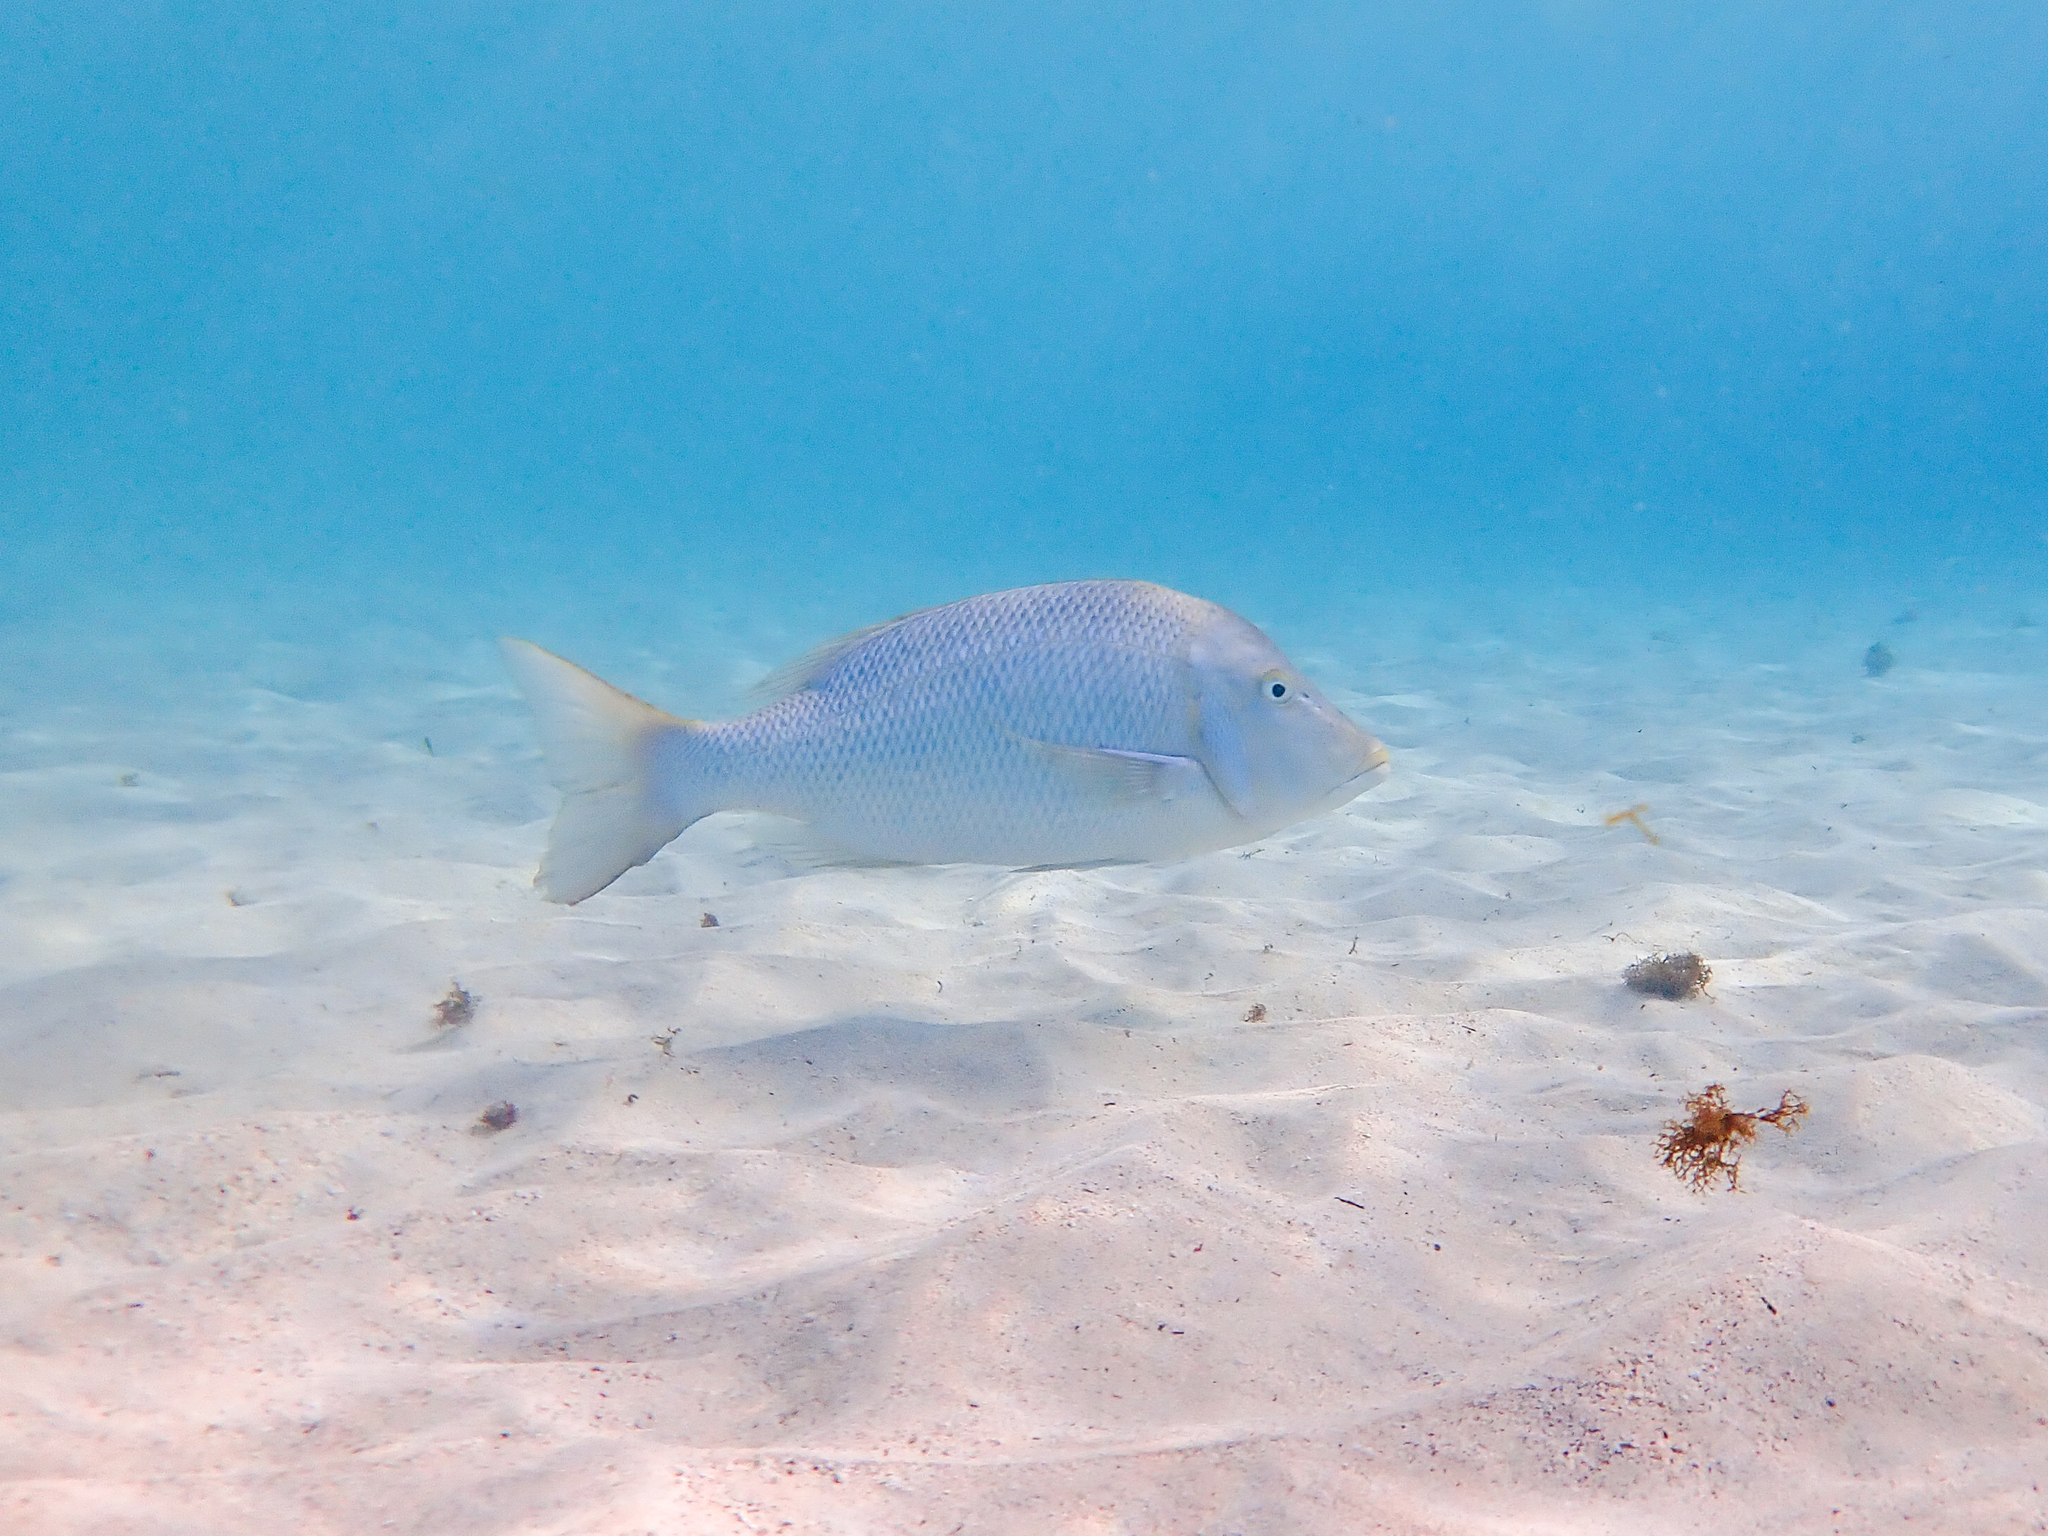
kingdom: Animalia
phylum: Chordata
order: Perciformes
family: Lethrinidae
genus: Lethrinus
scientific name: Lethrinus nebulosus
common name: Spangled emperor
